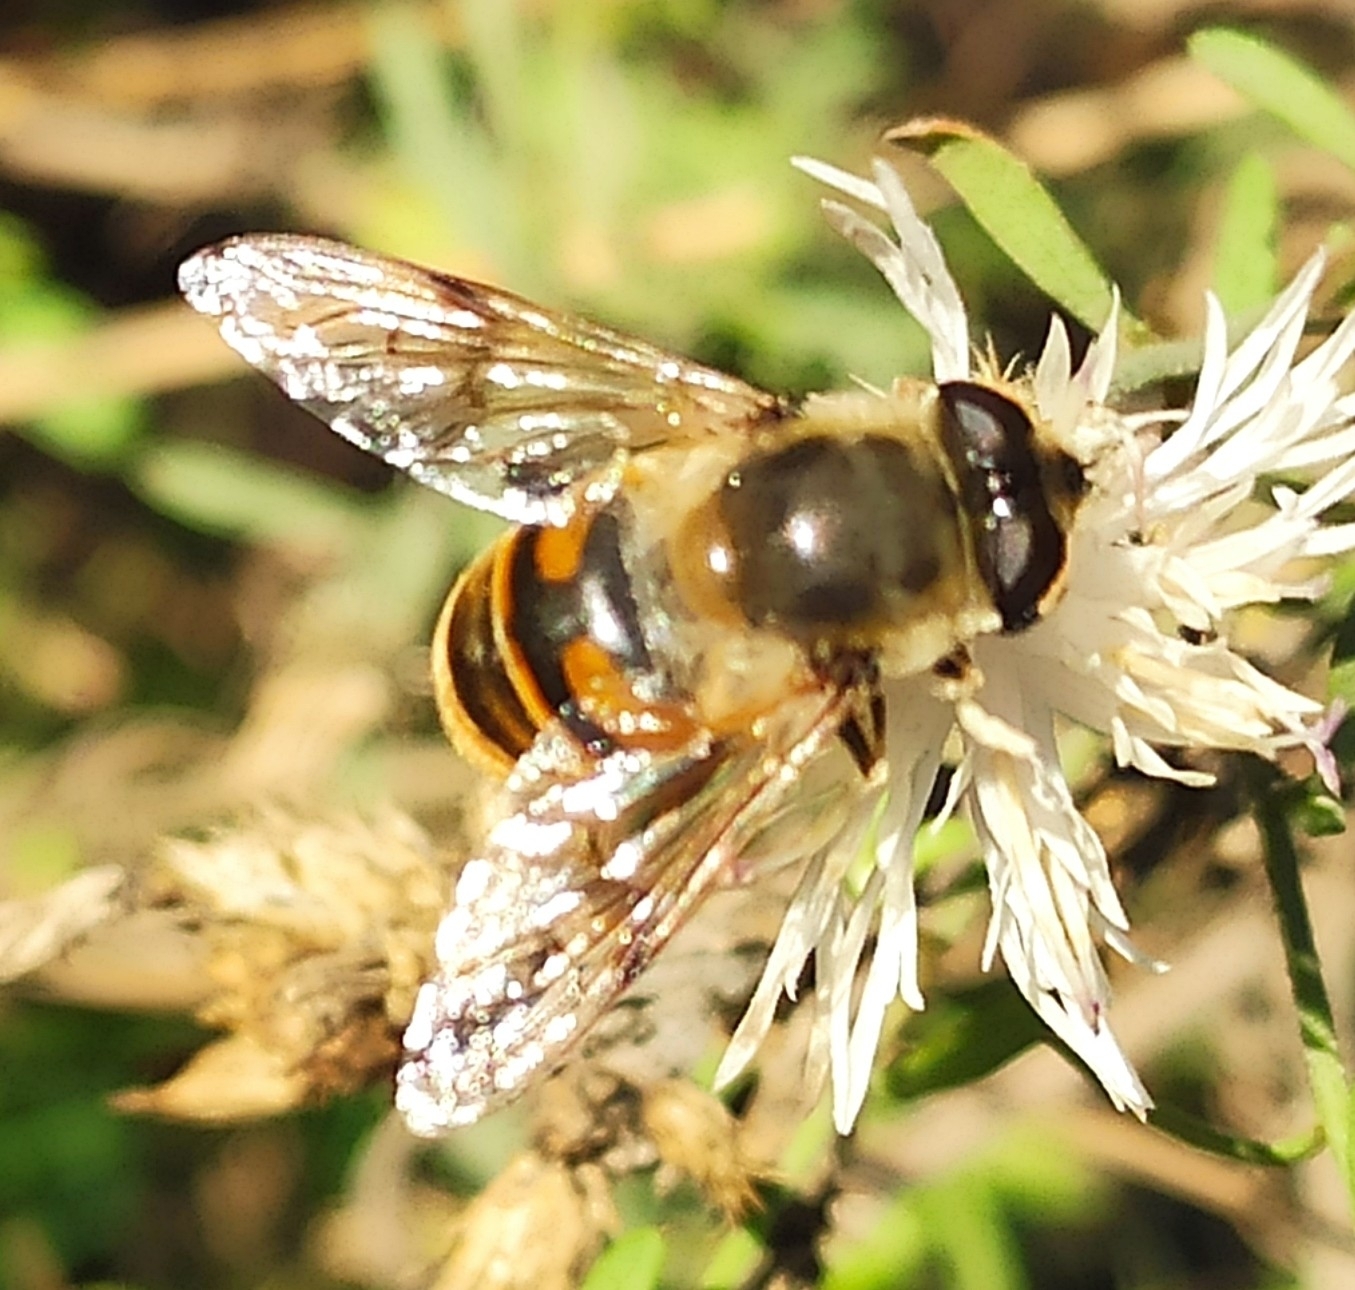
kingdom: Animalia
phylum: Arthropoda
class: Insecta
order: Diptera
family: Syrphidae
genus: Eristalis
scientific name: Eristalis tenax
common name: Drone fly
